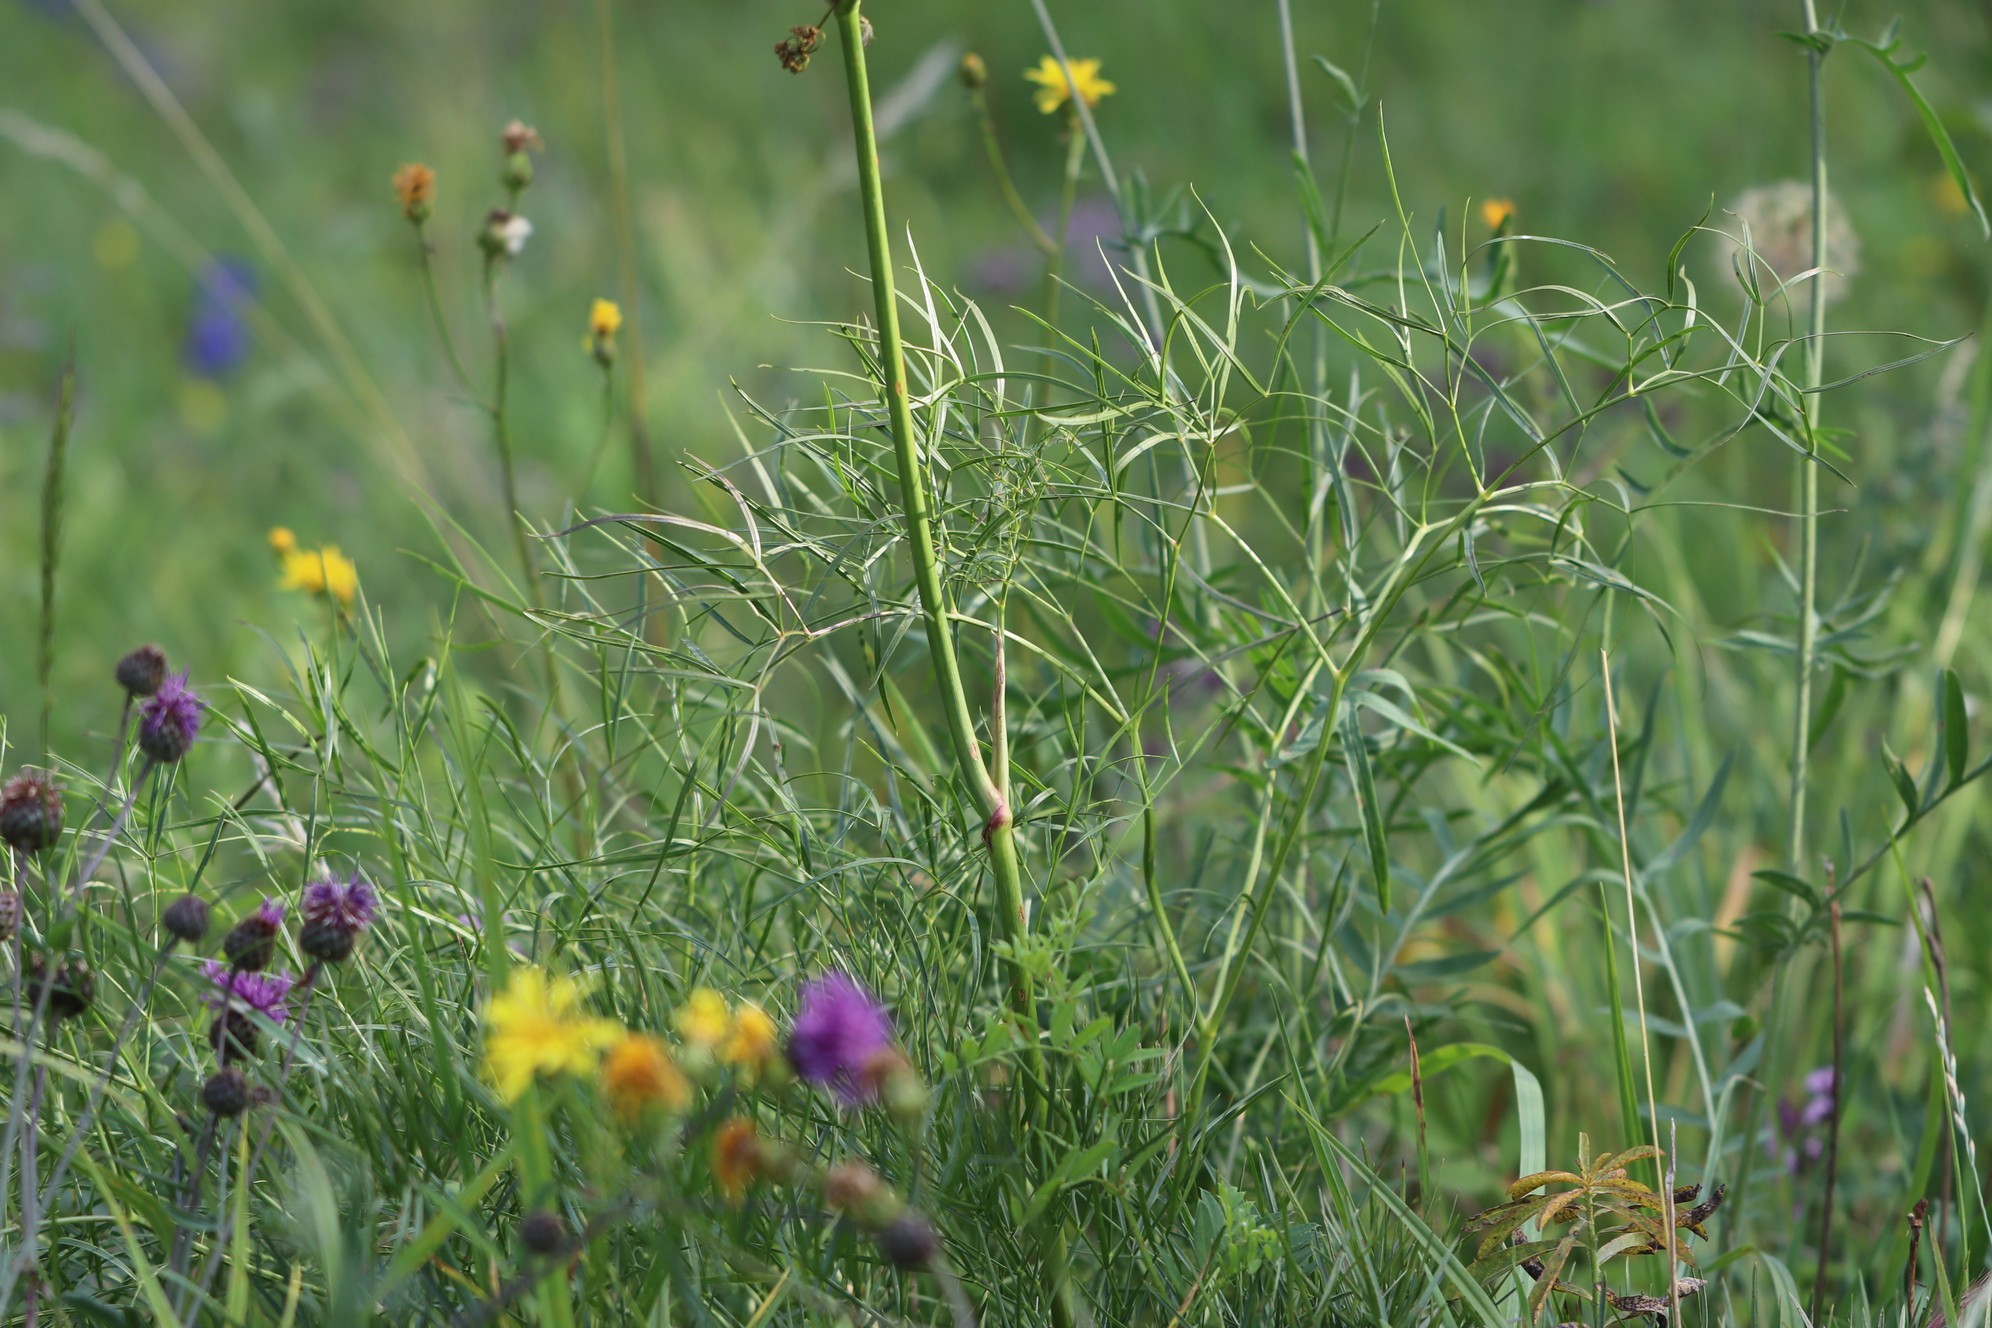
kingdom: Plantae
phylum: Tracheophyta
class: Magnoliopsida
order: Apiales
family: Apiaceae
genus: Peucedanum
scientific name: Peucedanum morisonii
